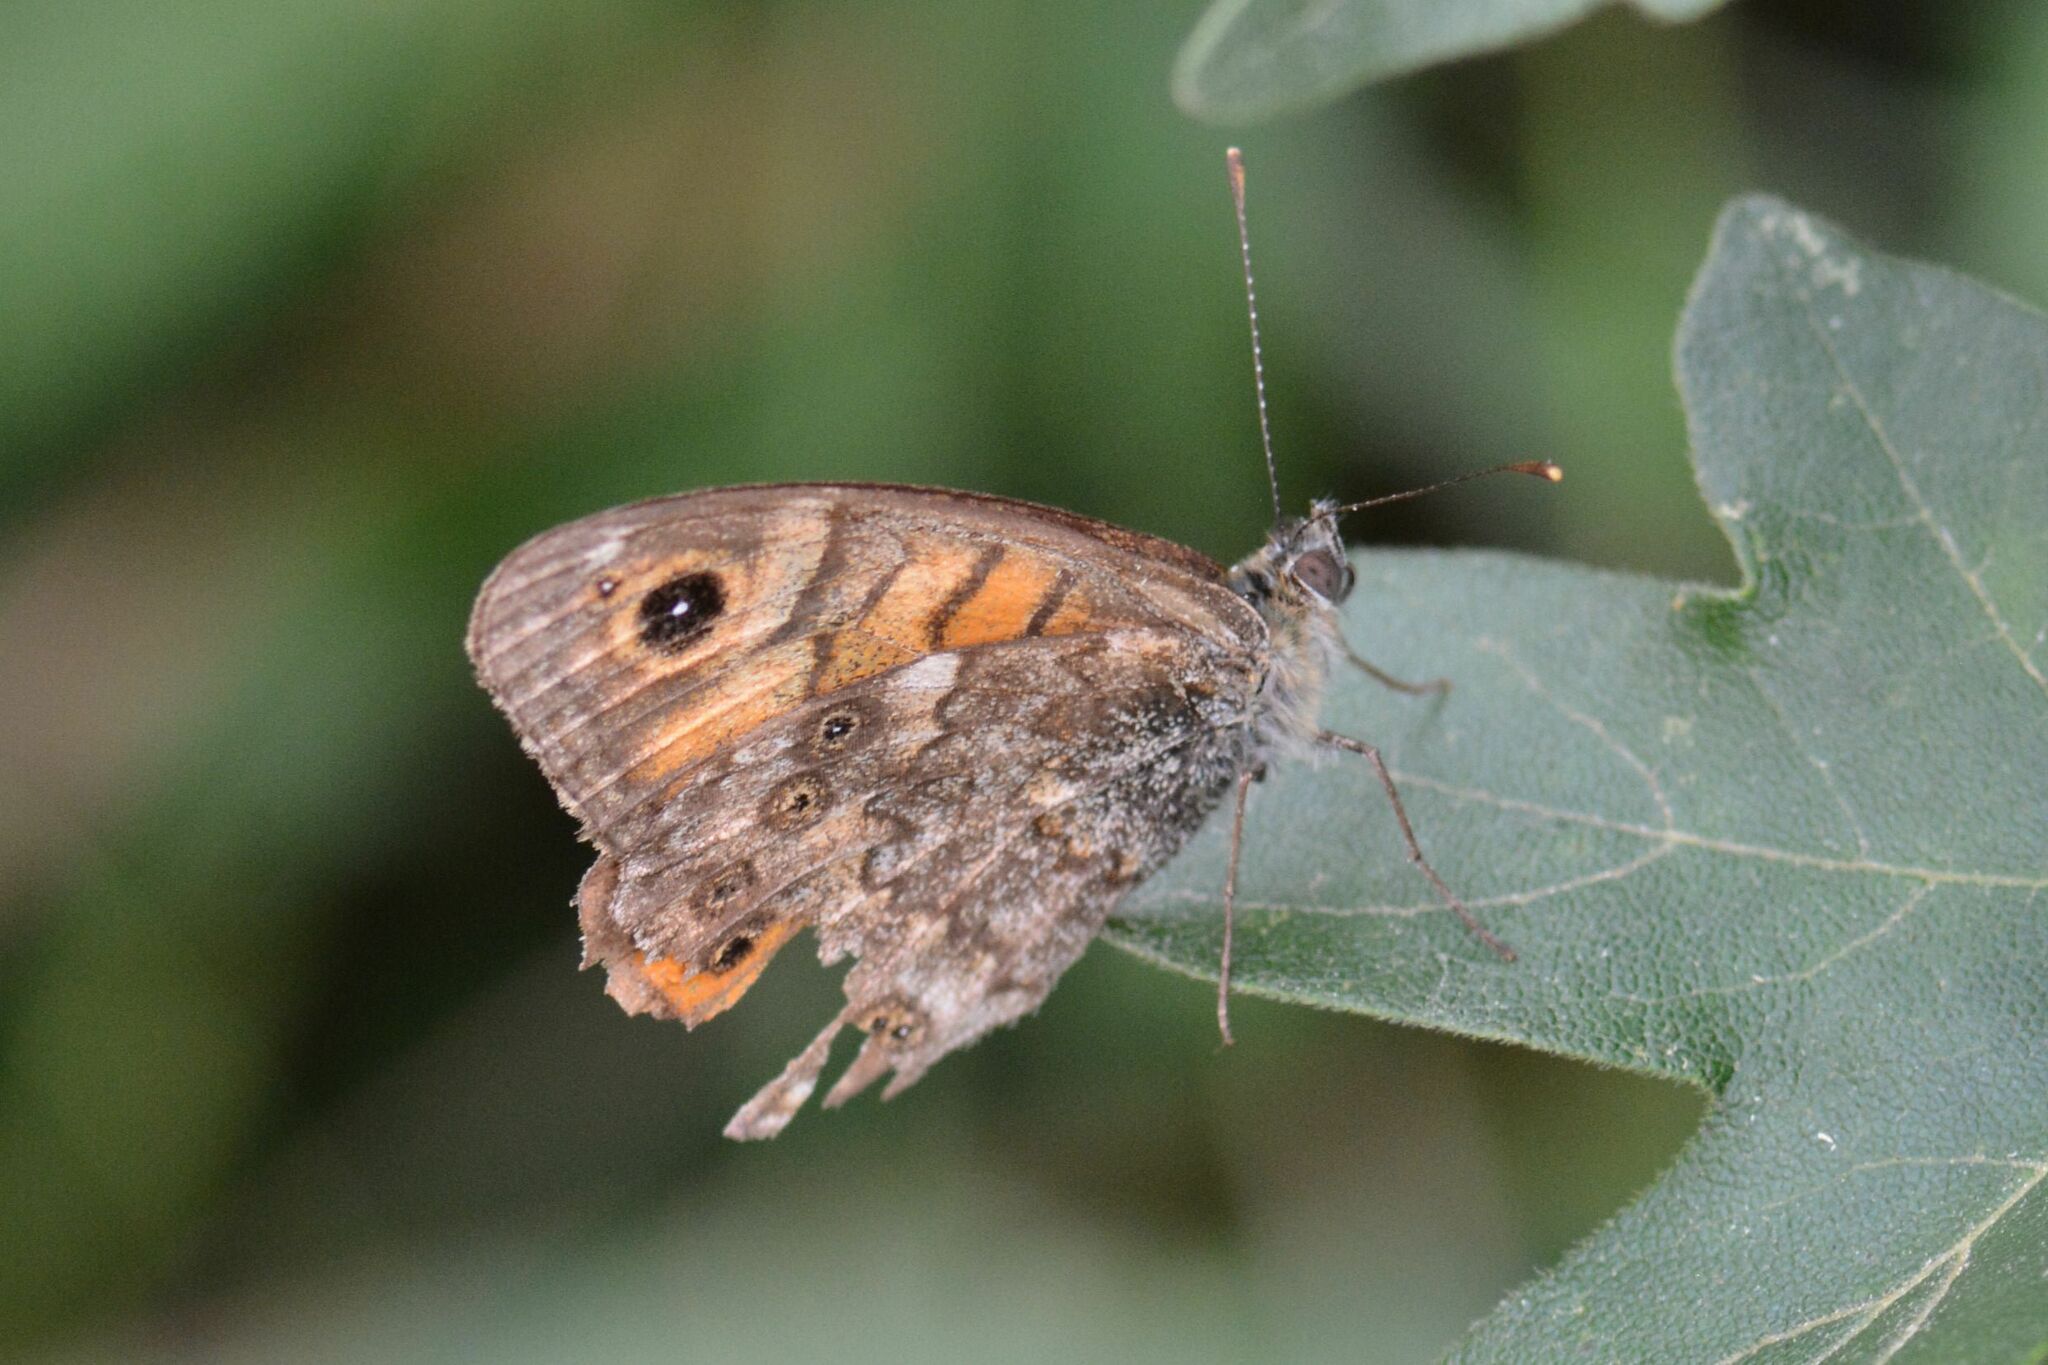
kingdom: Animalia
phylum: Arthropoda
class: Insecta
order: Lepidoptera
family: Nymphalidae
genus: Pararge
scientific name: Pararge Lasiommata megera
